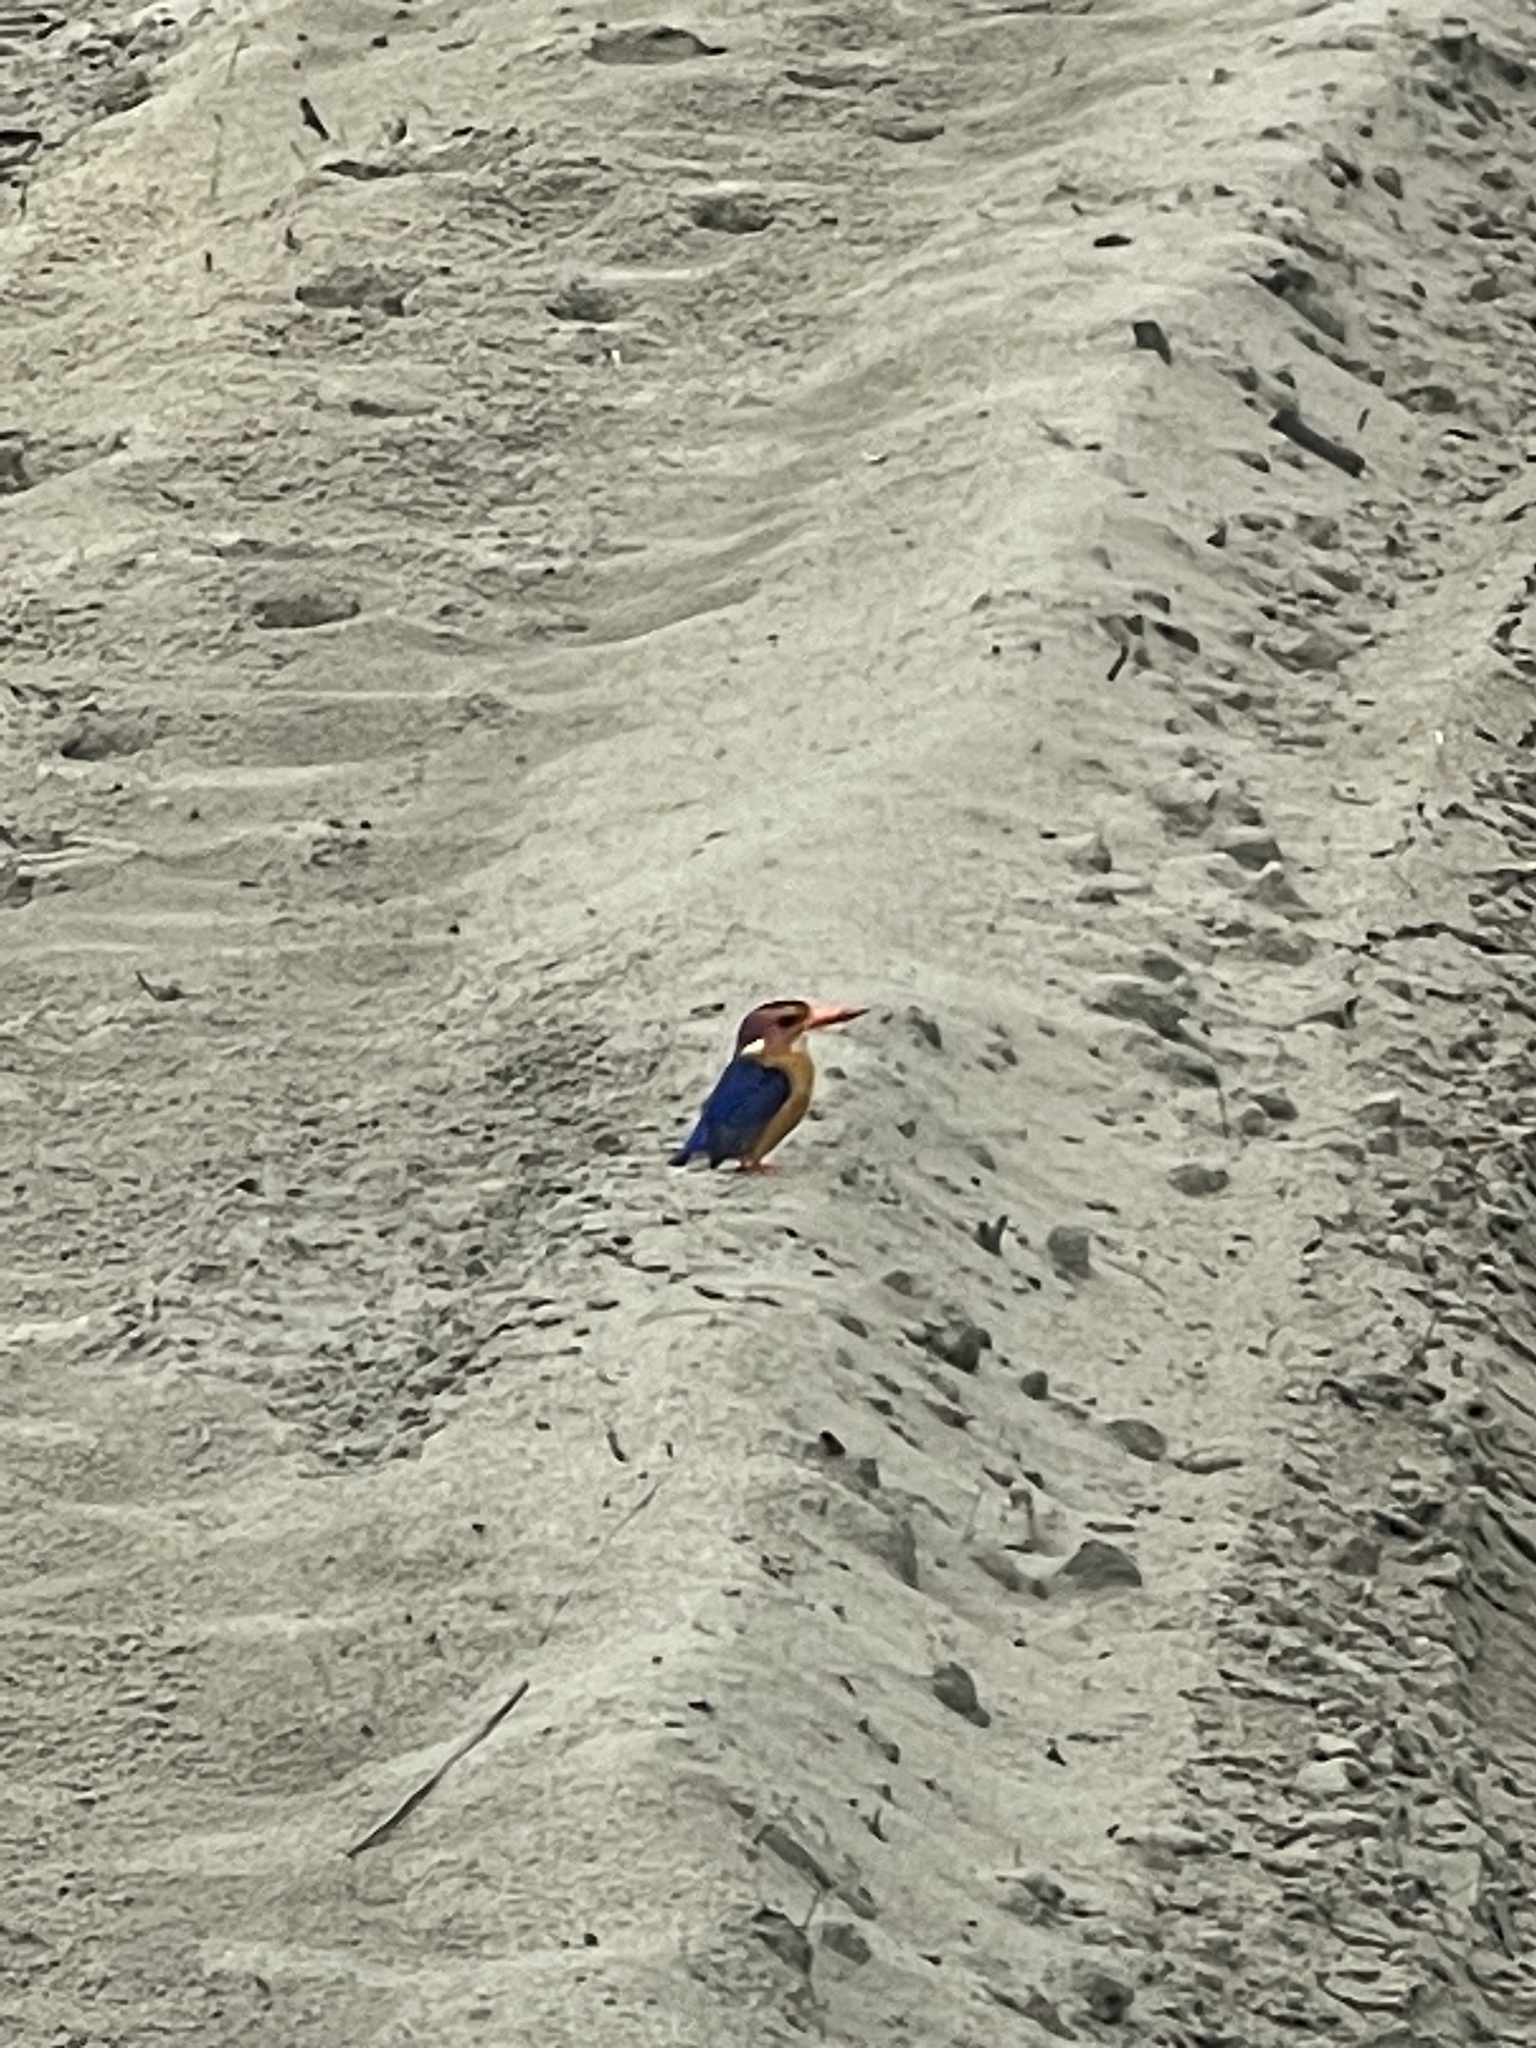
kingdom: Animalia
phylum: Chordata
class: Aves
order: Coraciiformes
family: Alcedinidae
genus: Ispidina
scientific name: Ispidina picta
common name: African pygmy-kingfisher
